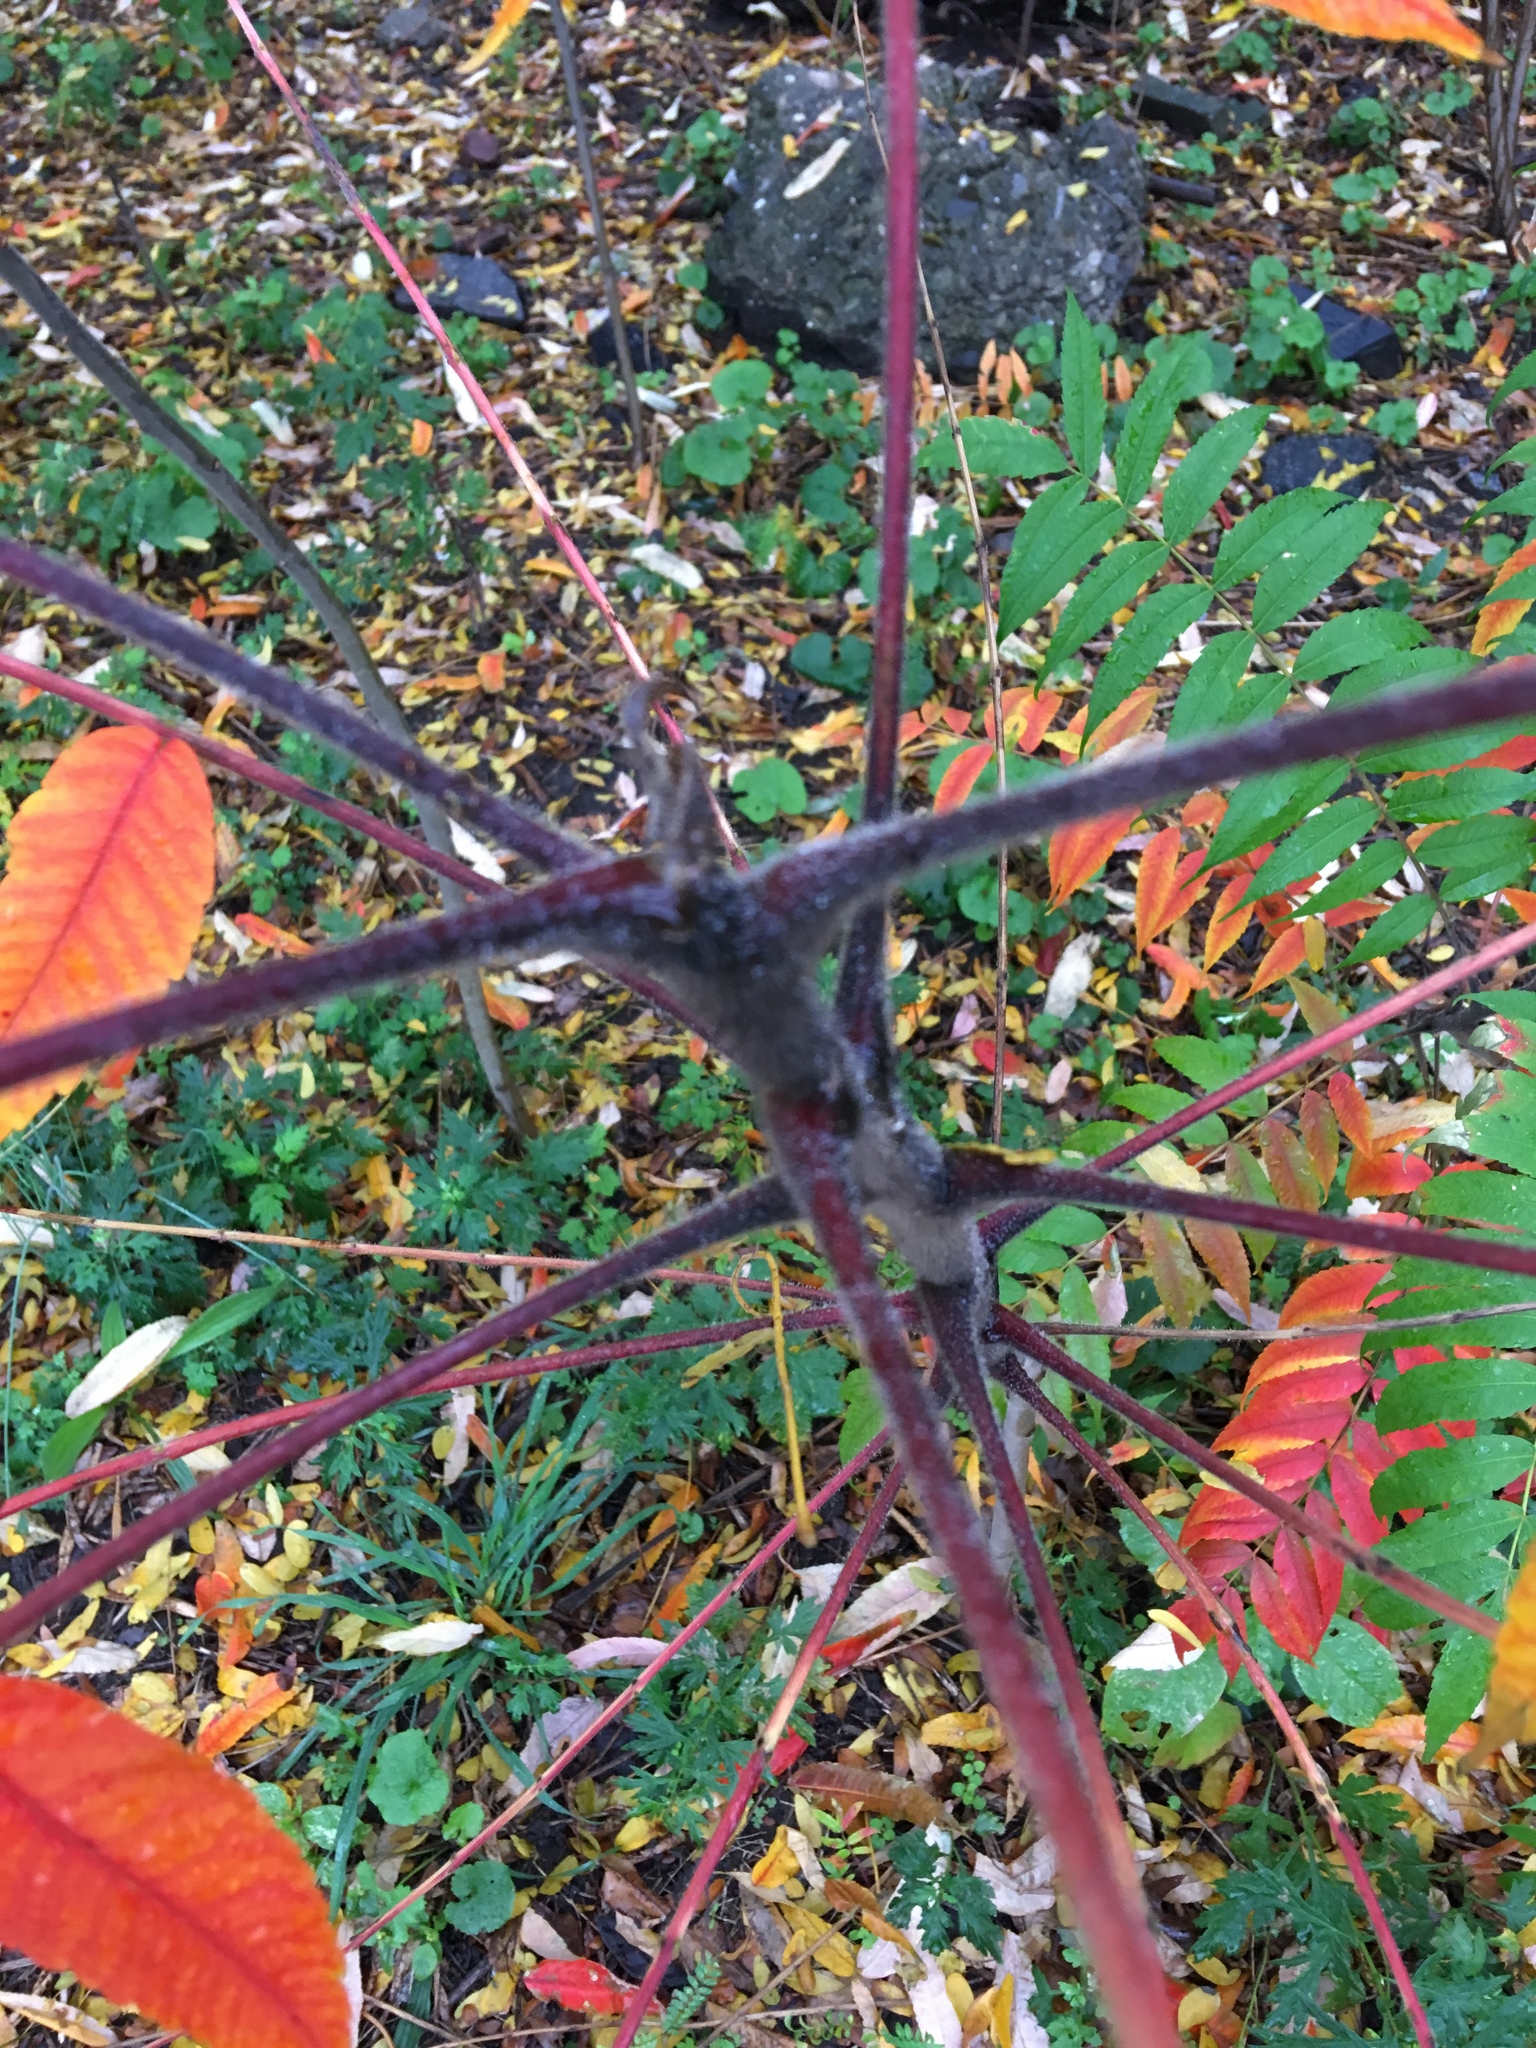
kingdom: Plantae
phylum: Tracheophyta
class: Magnoliopsida
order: Sapindales
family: Anacardiaceae
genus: Rhus
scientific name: Rhus typhina
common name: Staghorn sumac
